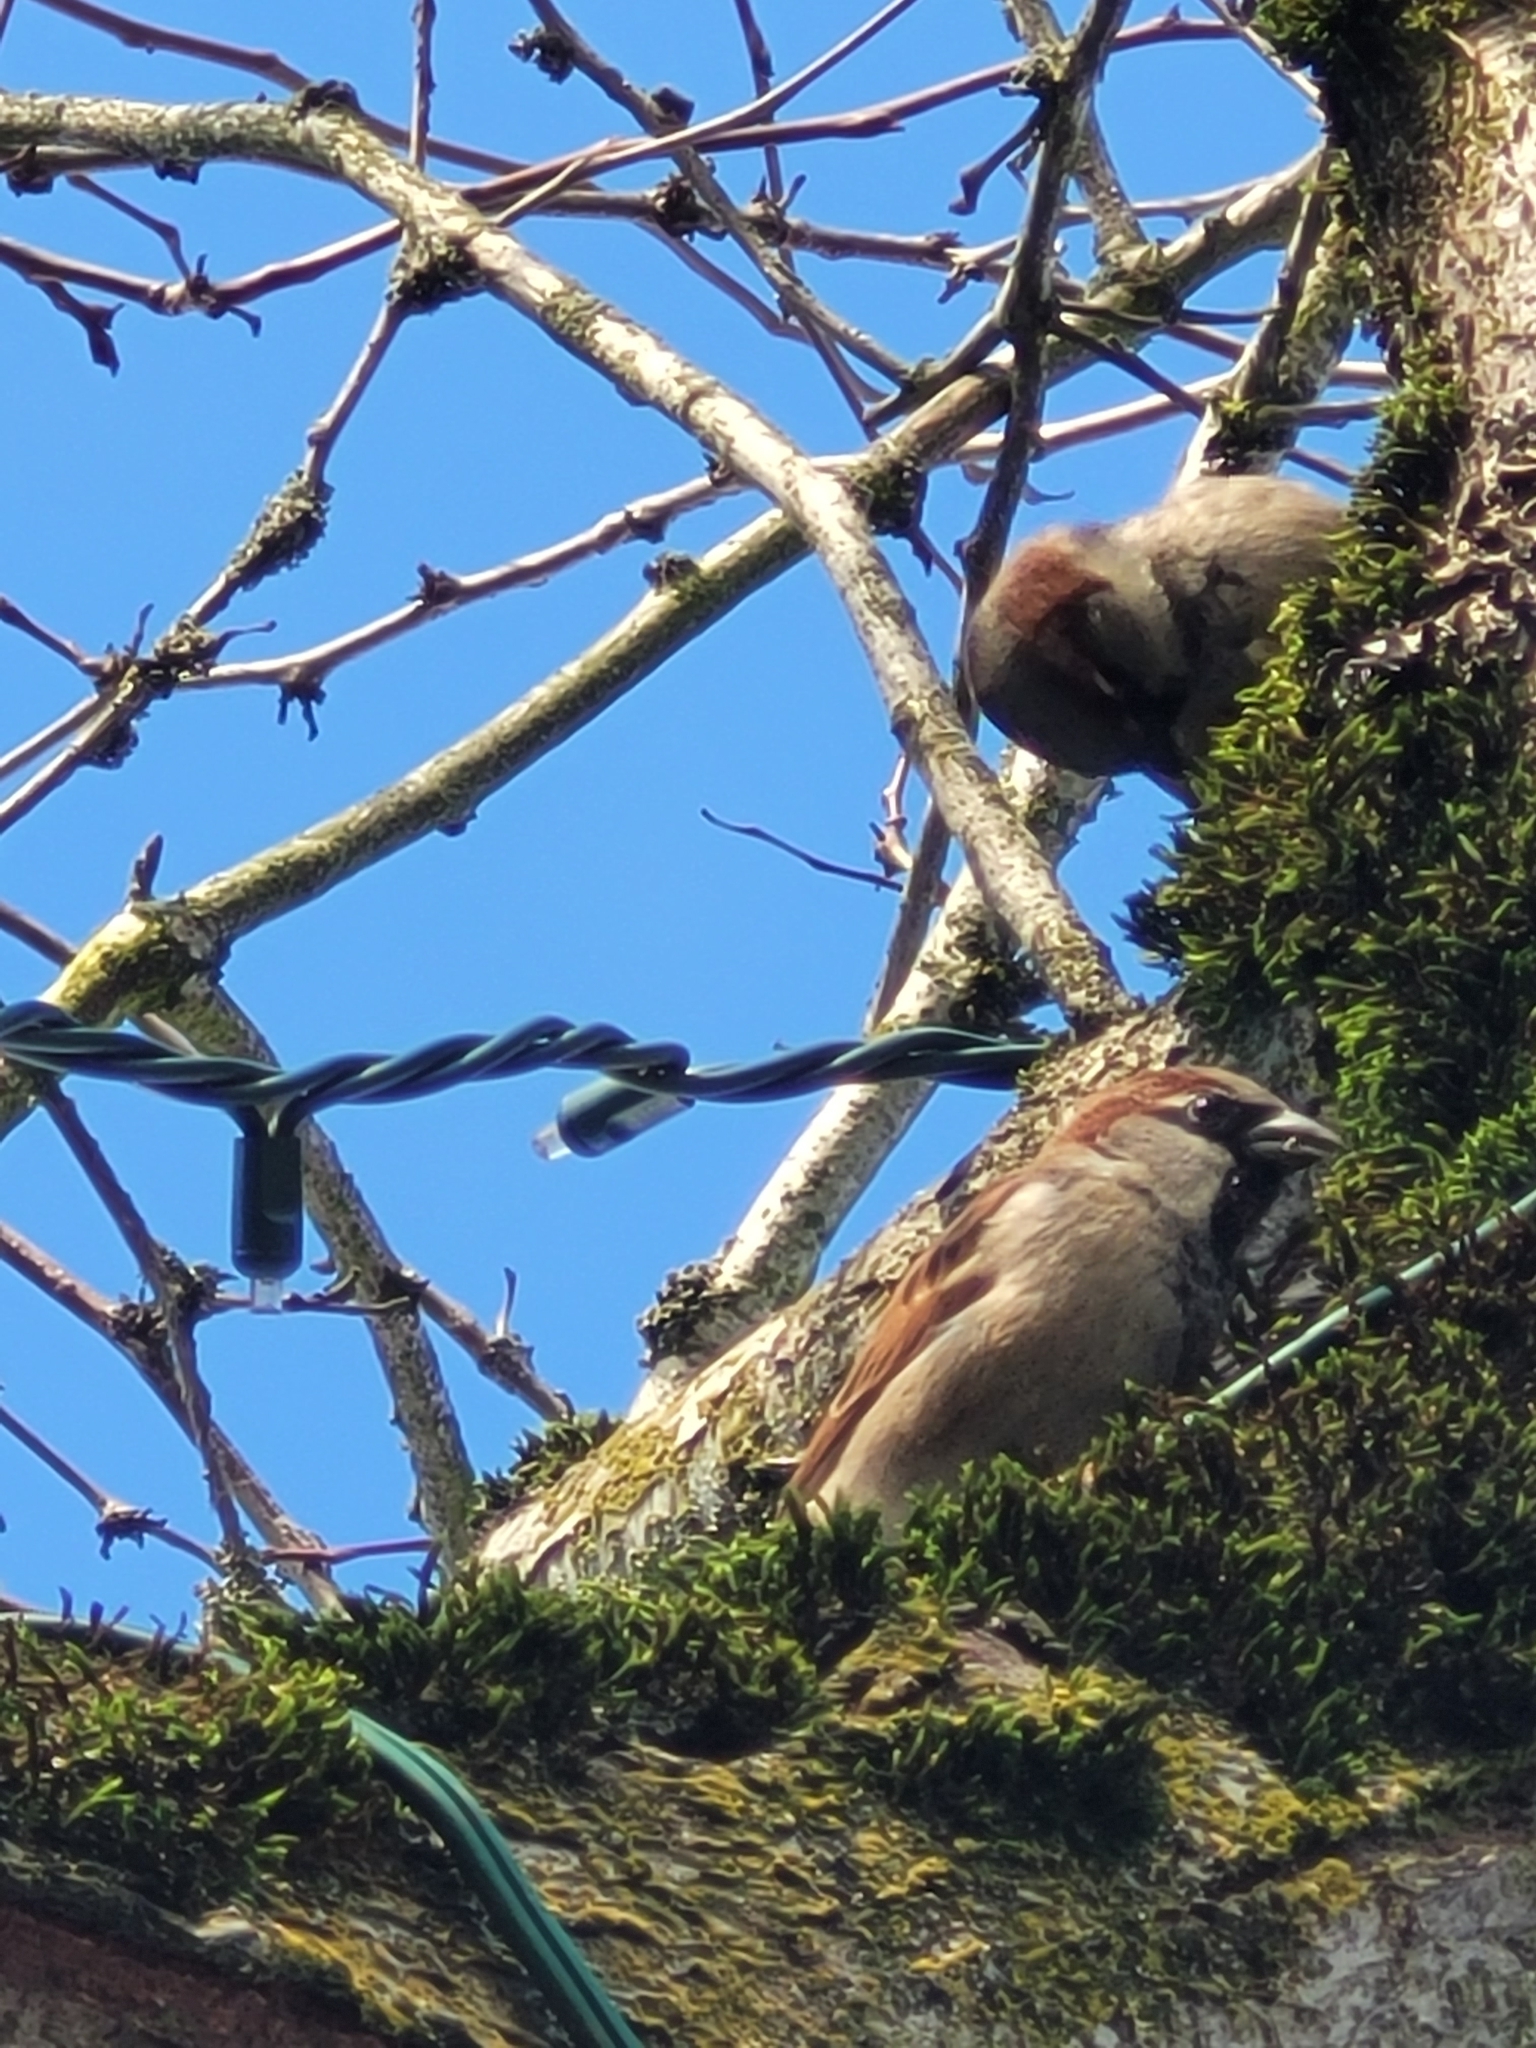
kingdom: Animalia
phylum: Chordata
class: Aves
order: Passeriformes
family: Passeridae
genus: Passer
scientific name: Passer domesticus
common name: House sparrow
